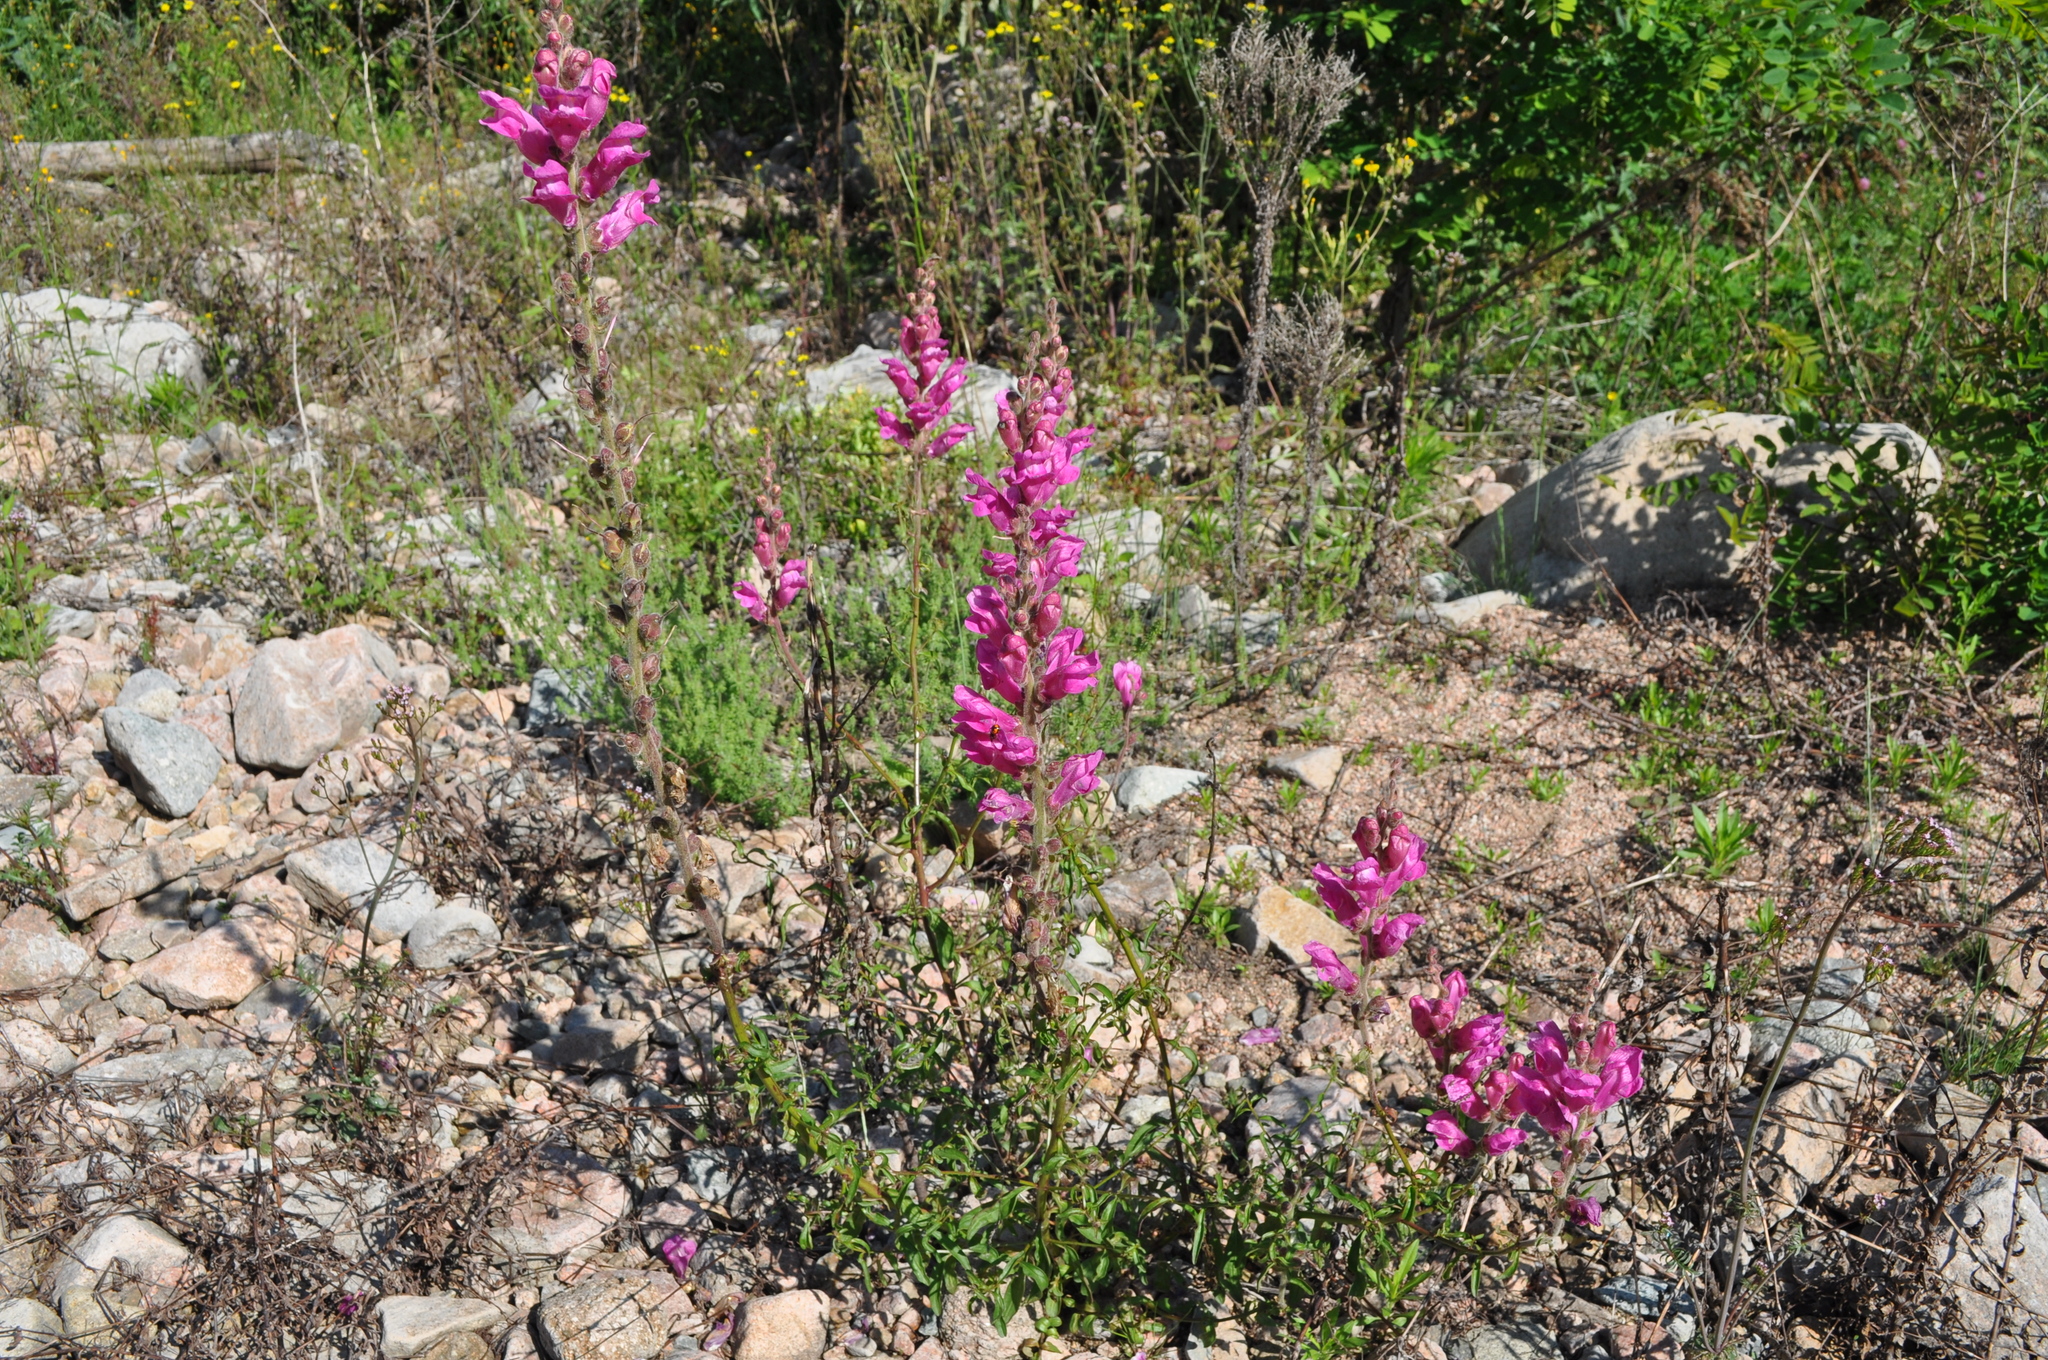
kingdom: Plantae
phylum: Tracheophyta
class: Magnoliopsida
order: Lamiales
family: Plantaginaceae
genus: Antirrhinum
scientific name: Antirrhinum majus
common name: Snapdragon
